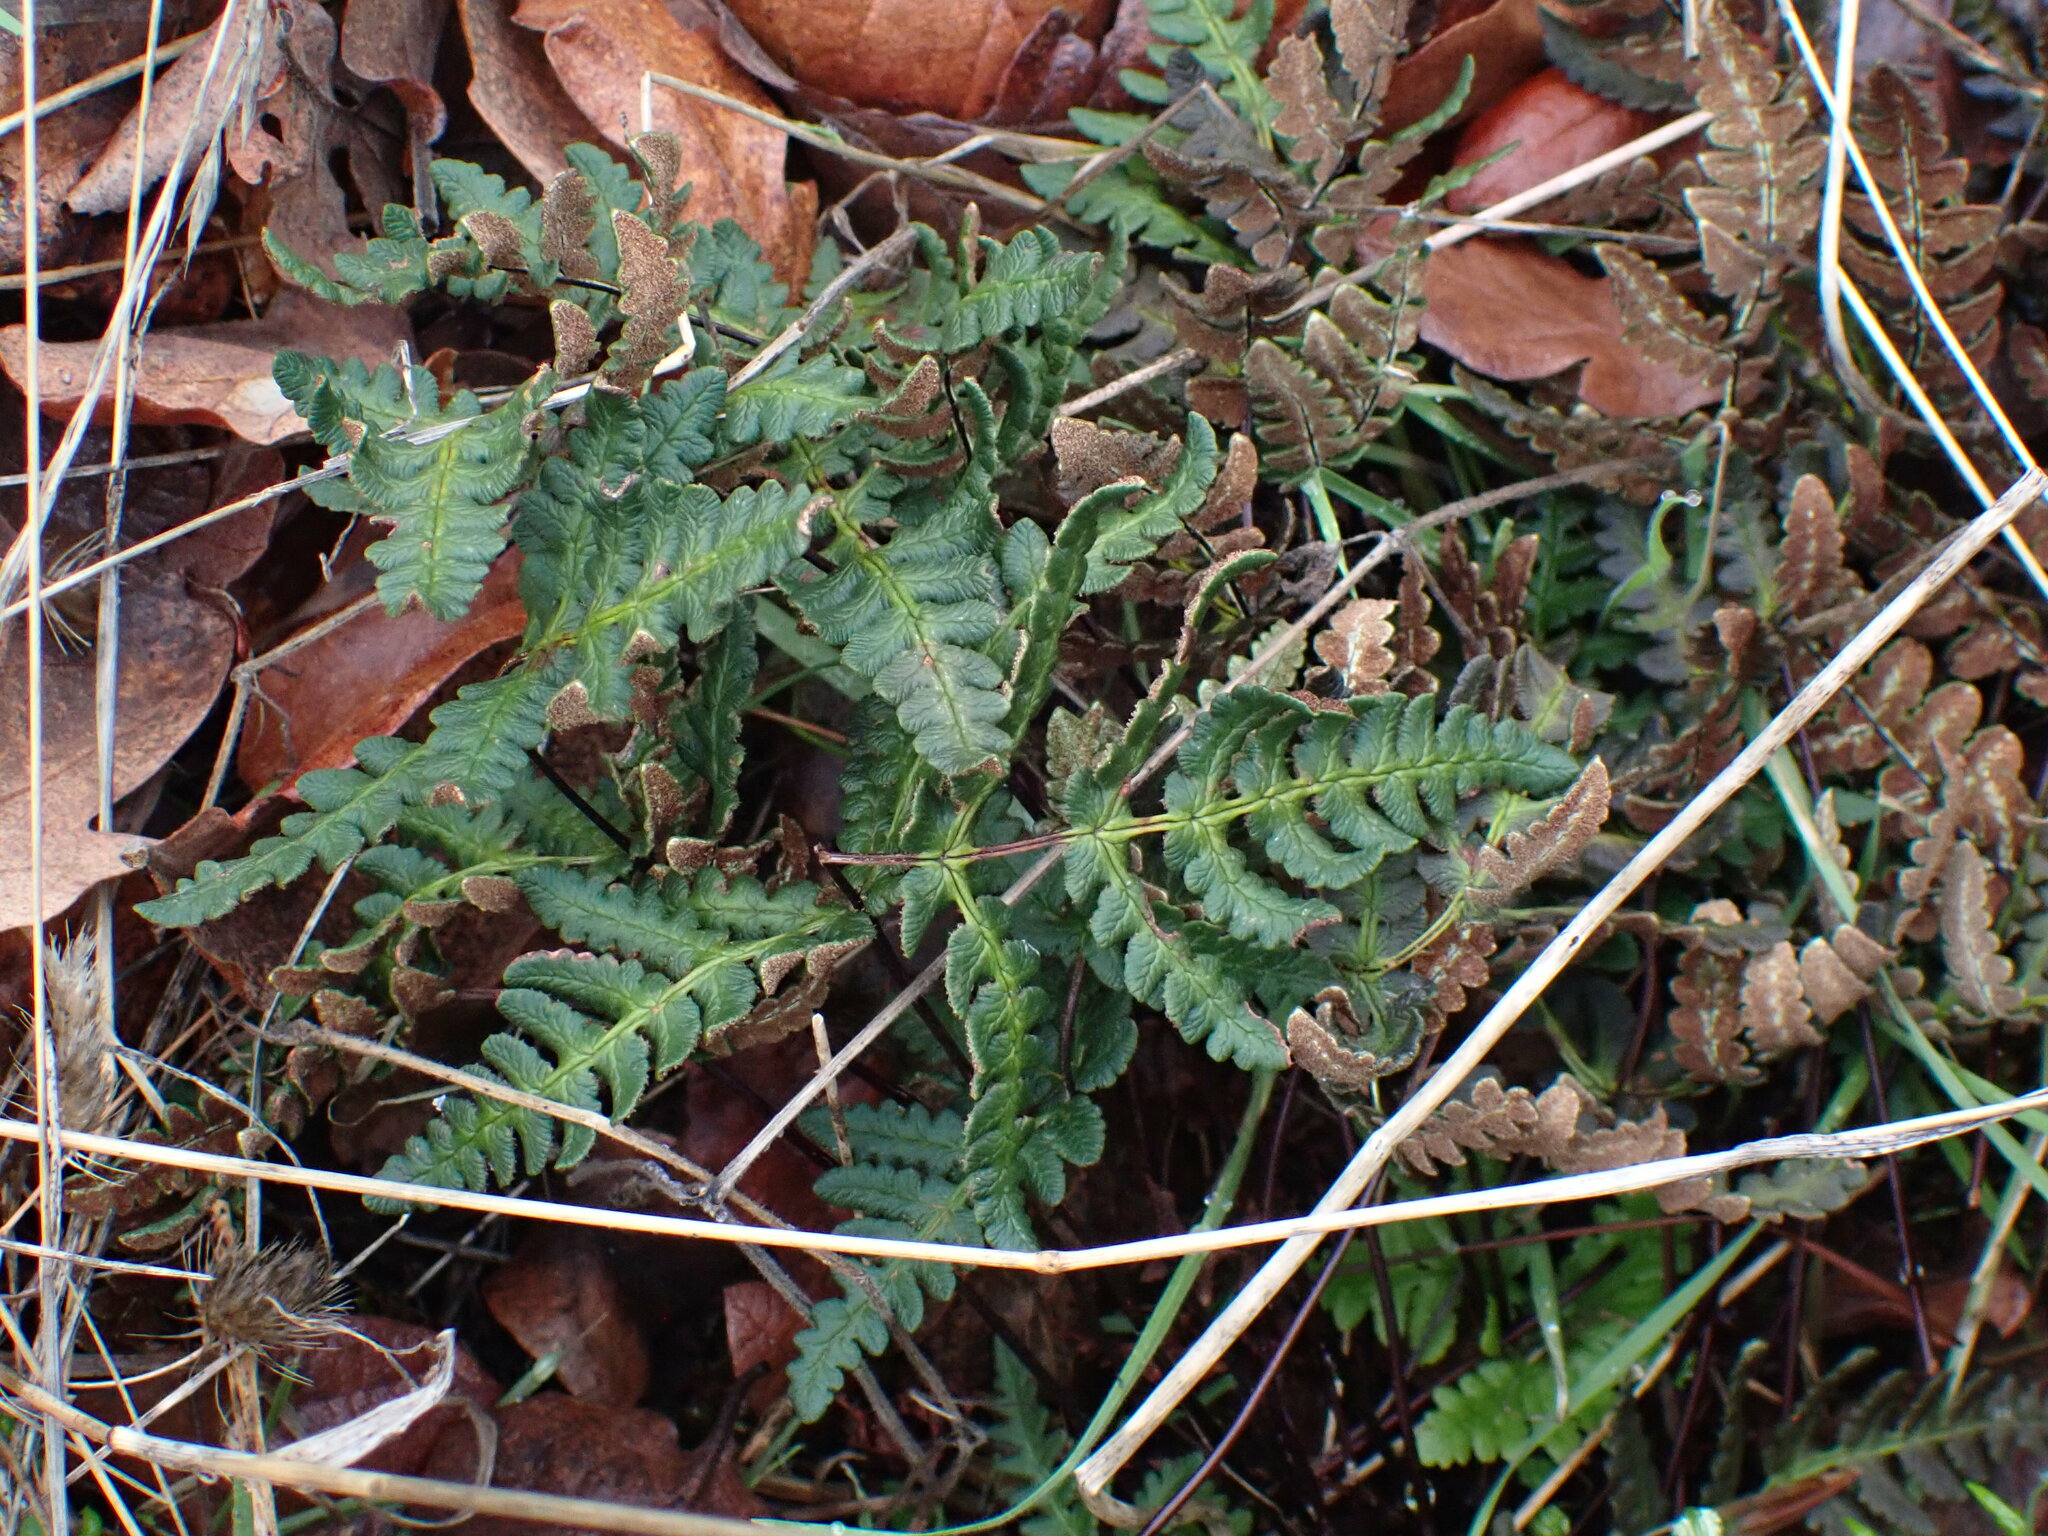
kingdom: Plantae
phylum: Tracheophyta
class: Polypodiopsida
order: Polypodiales
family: Pteridaceae
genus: Pentagramma
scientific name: Pentagramma triangularis
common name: Gold fern
